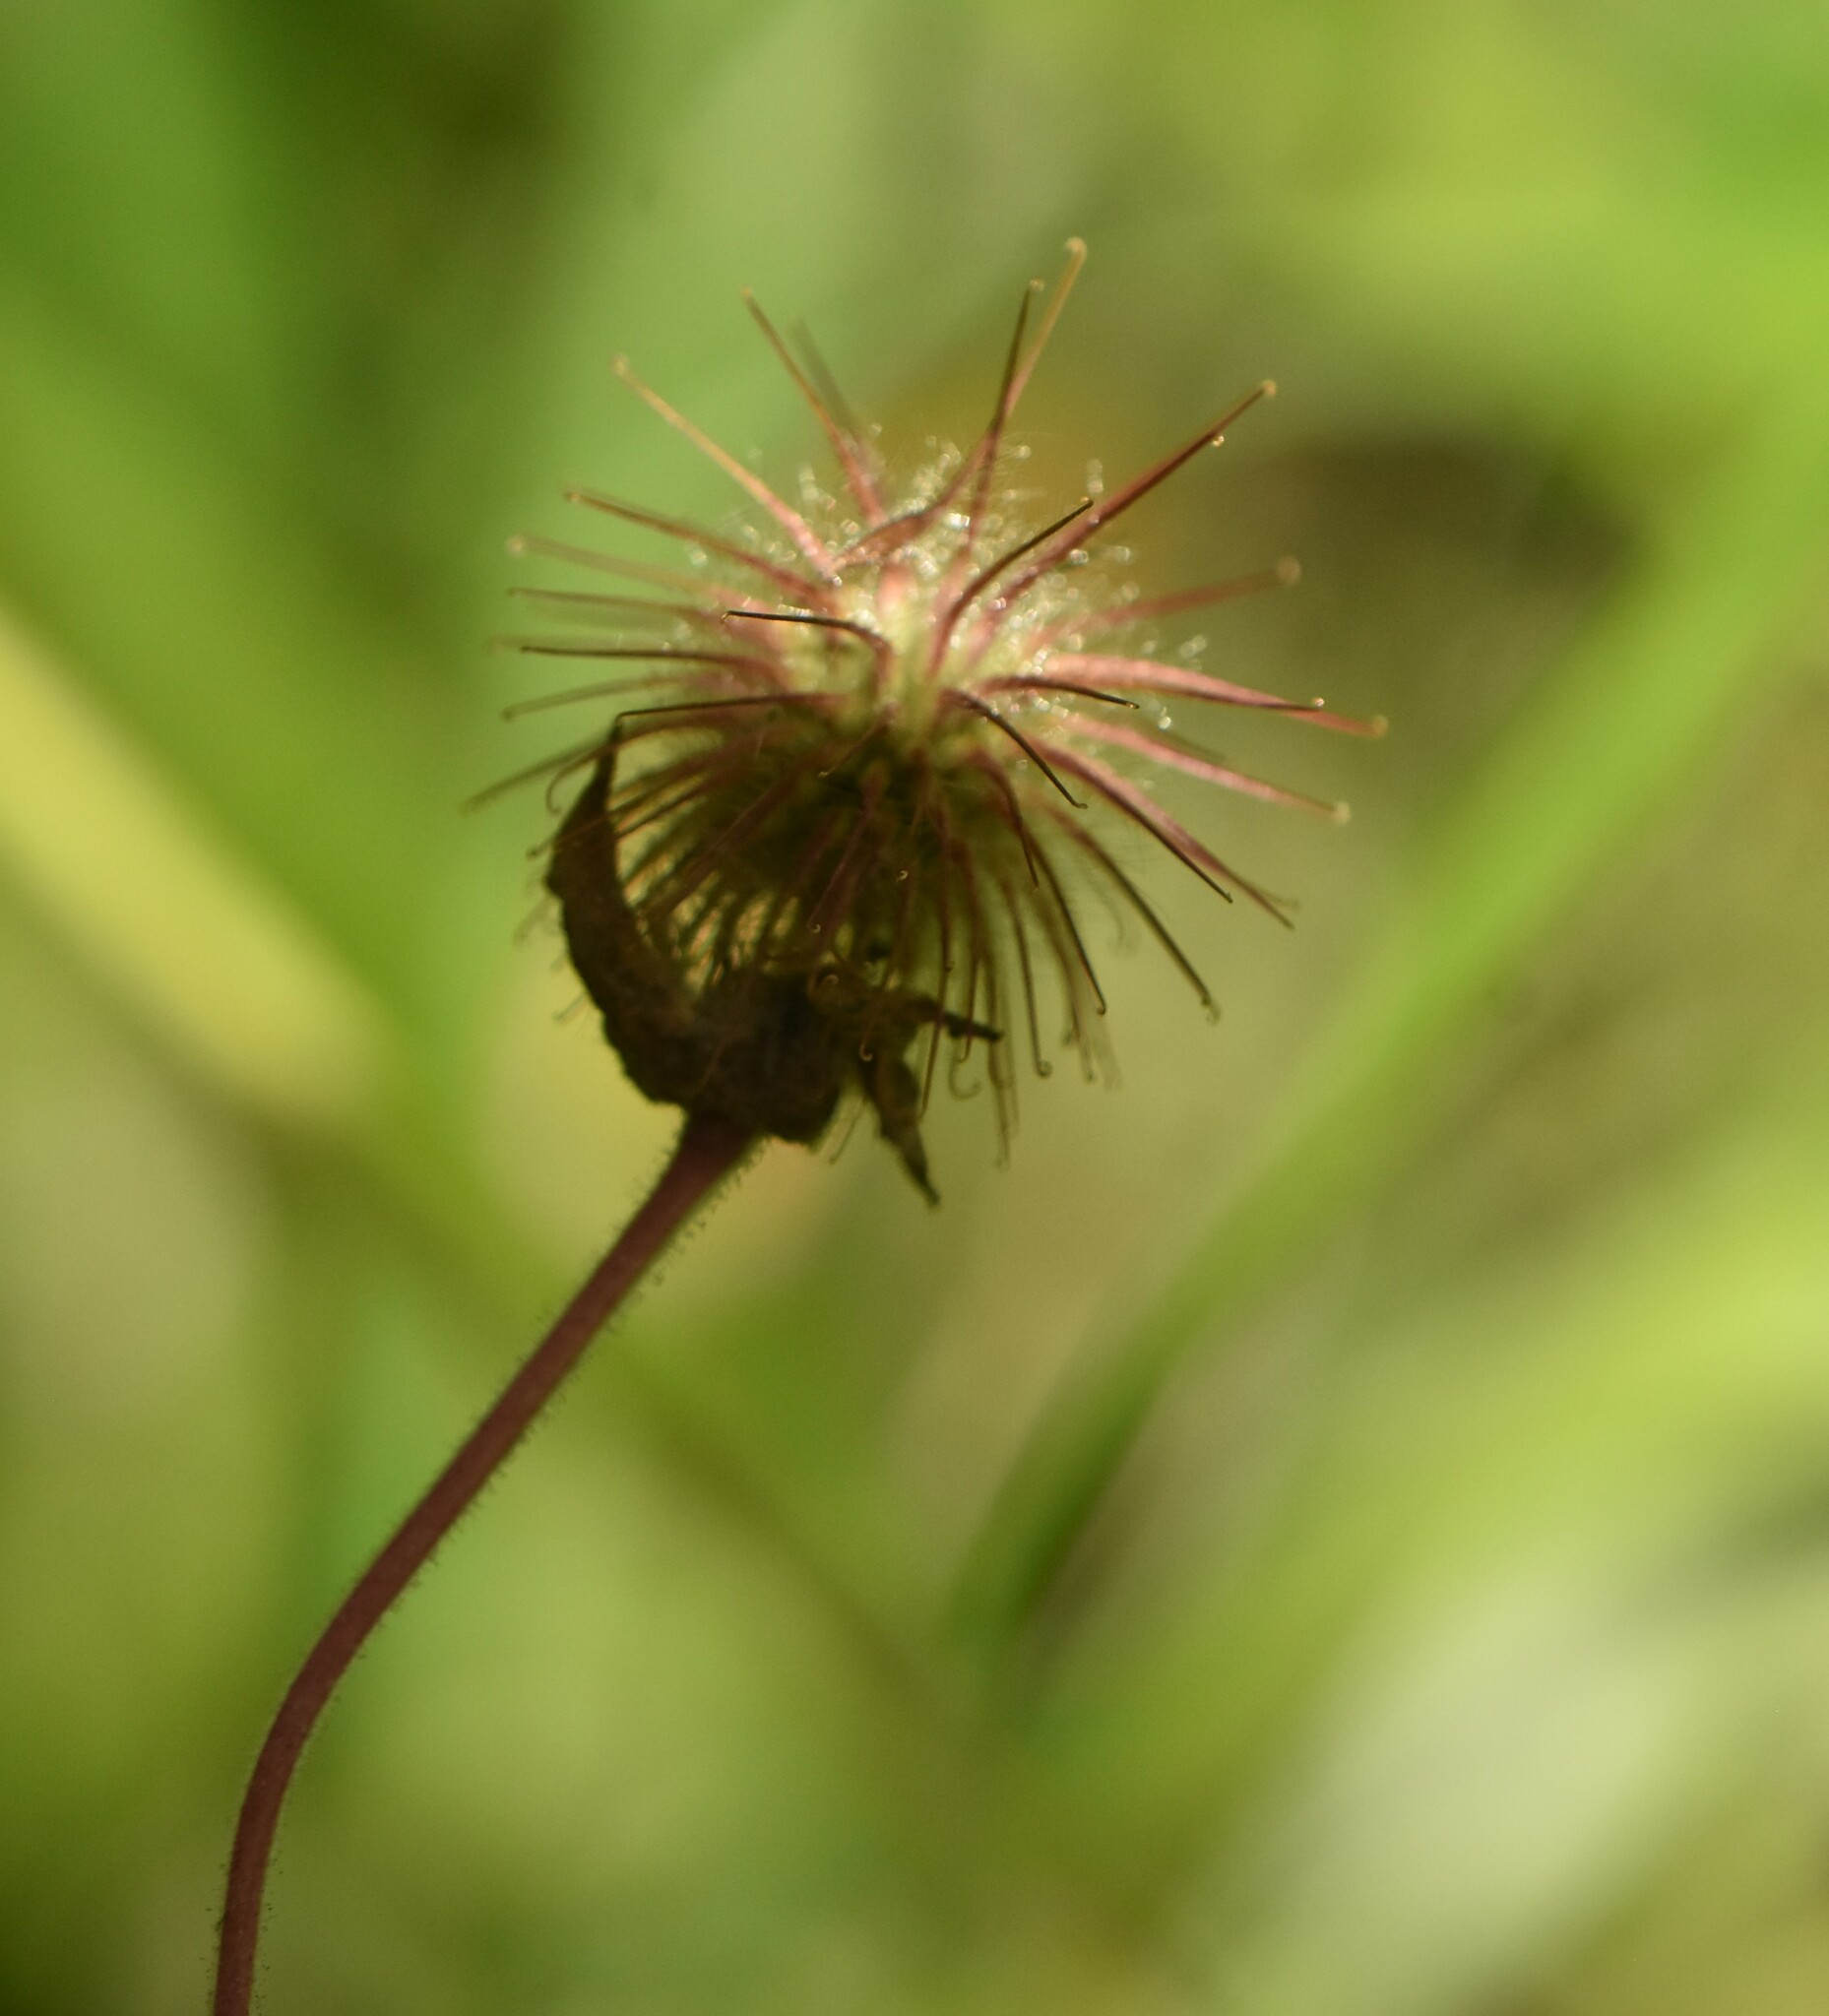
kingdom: Plantae
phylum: Tracheophyta
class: Magnoliopsida
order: Rosales
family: Rosaceae
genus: Geum
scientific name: Geum rivale
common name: Water avens
